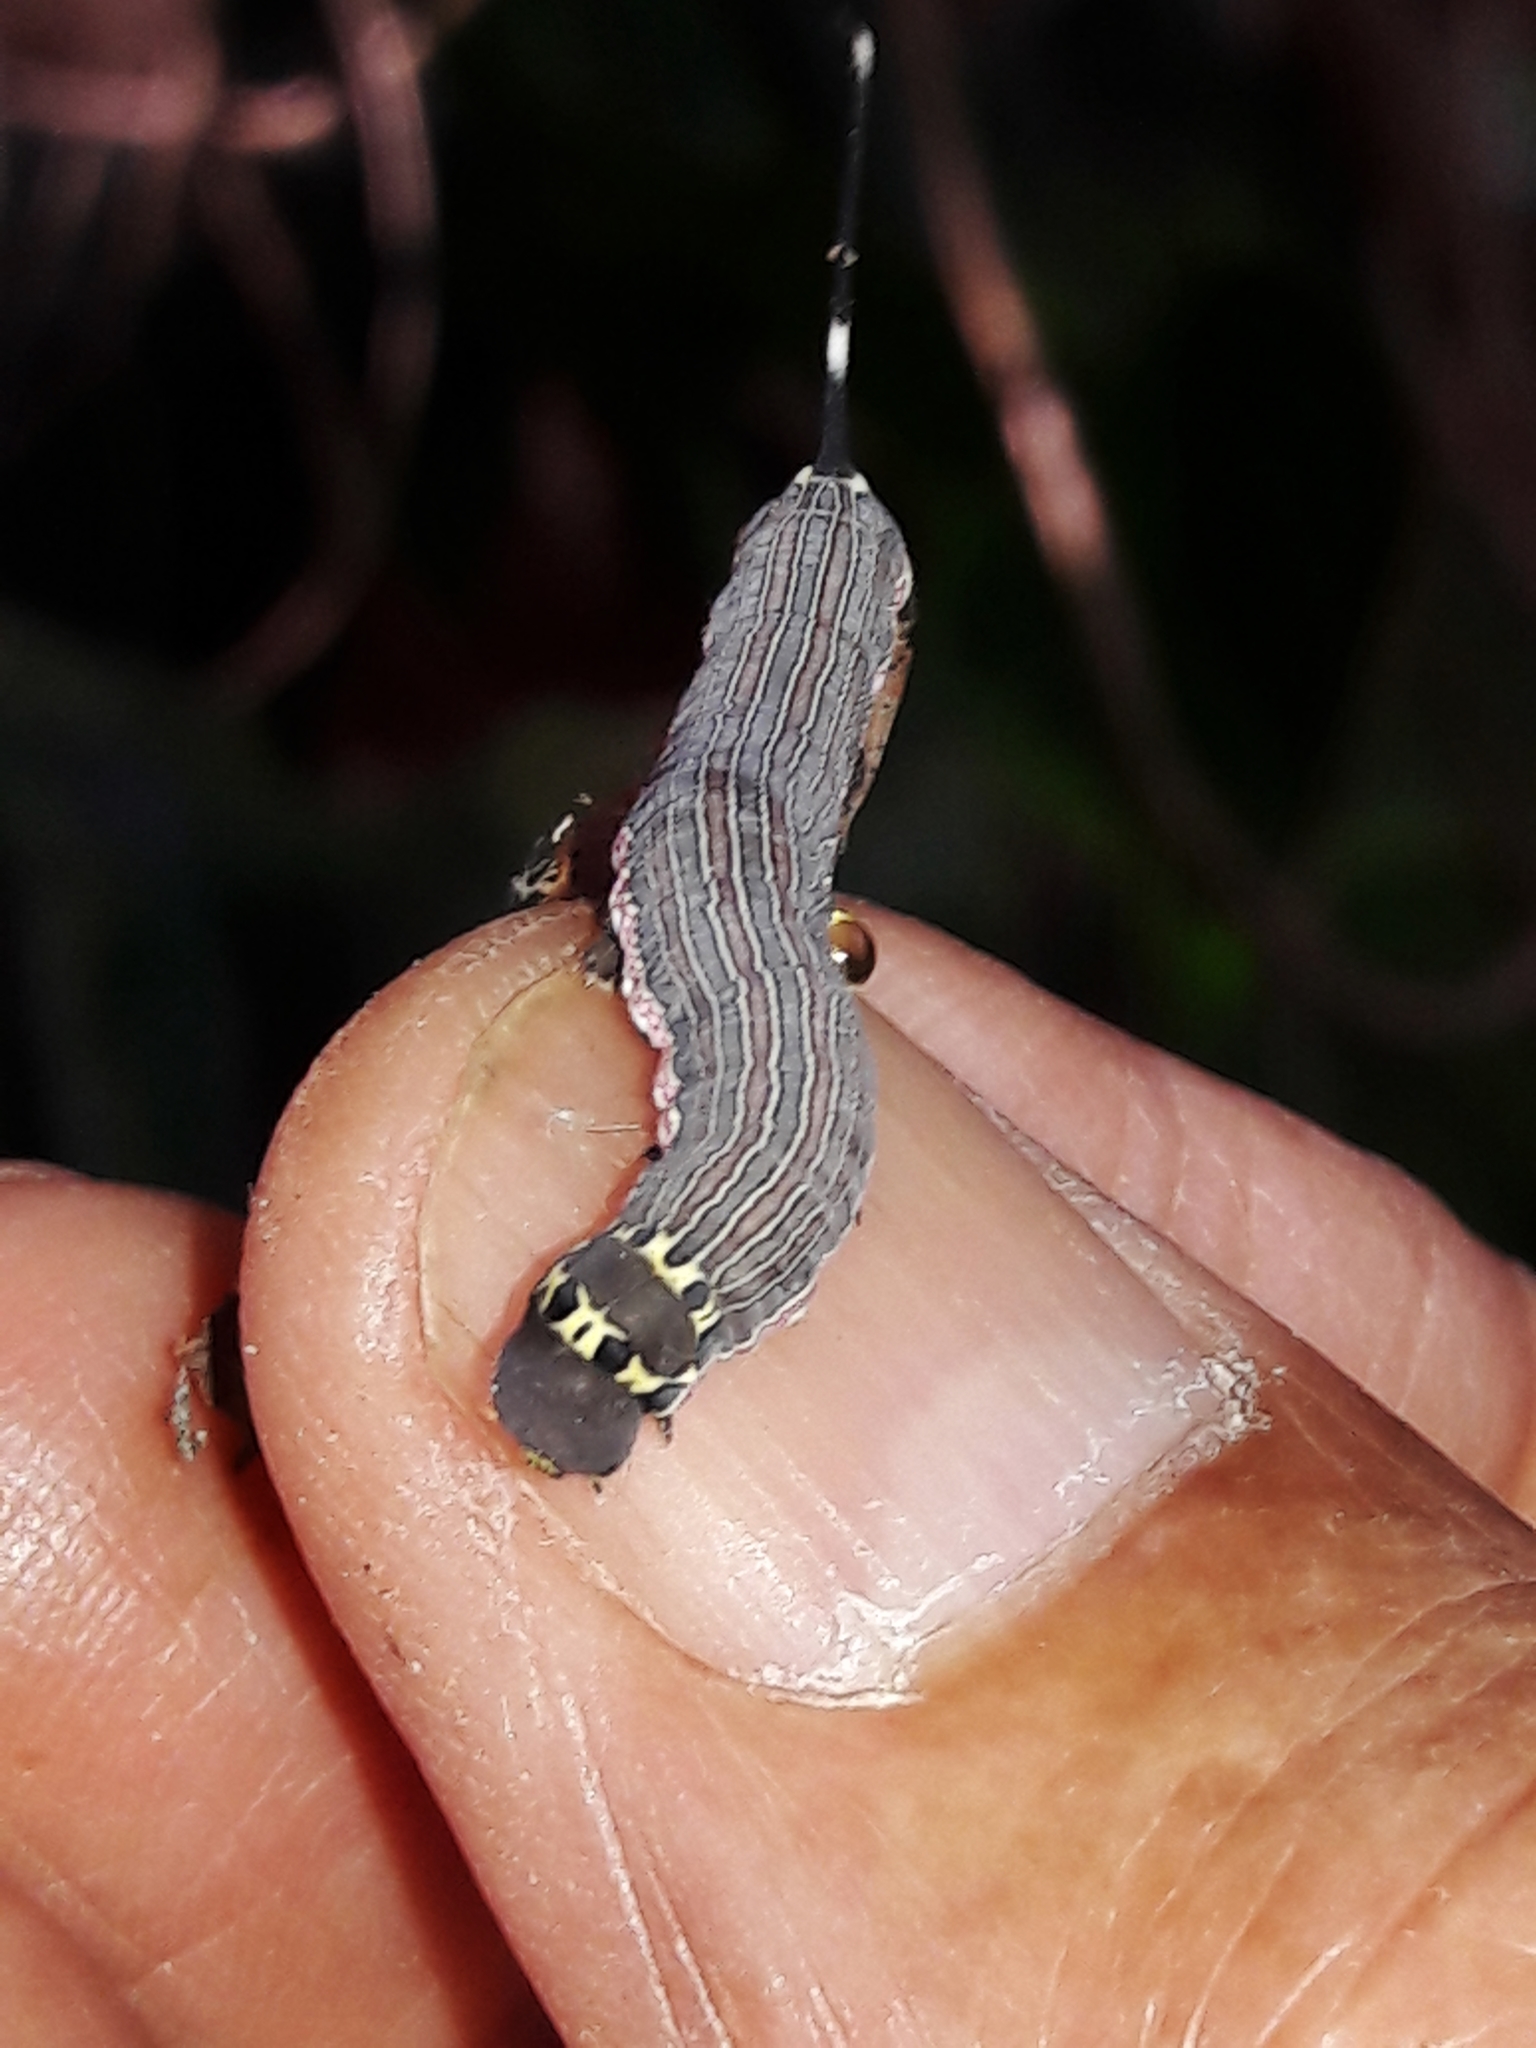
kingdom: Animalia
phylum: Arthropoda
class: Insecta
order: Lepidoptera
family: Sphingidae
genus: Isognathus
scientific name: Isognathus allamandae
